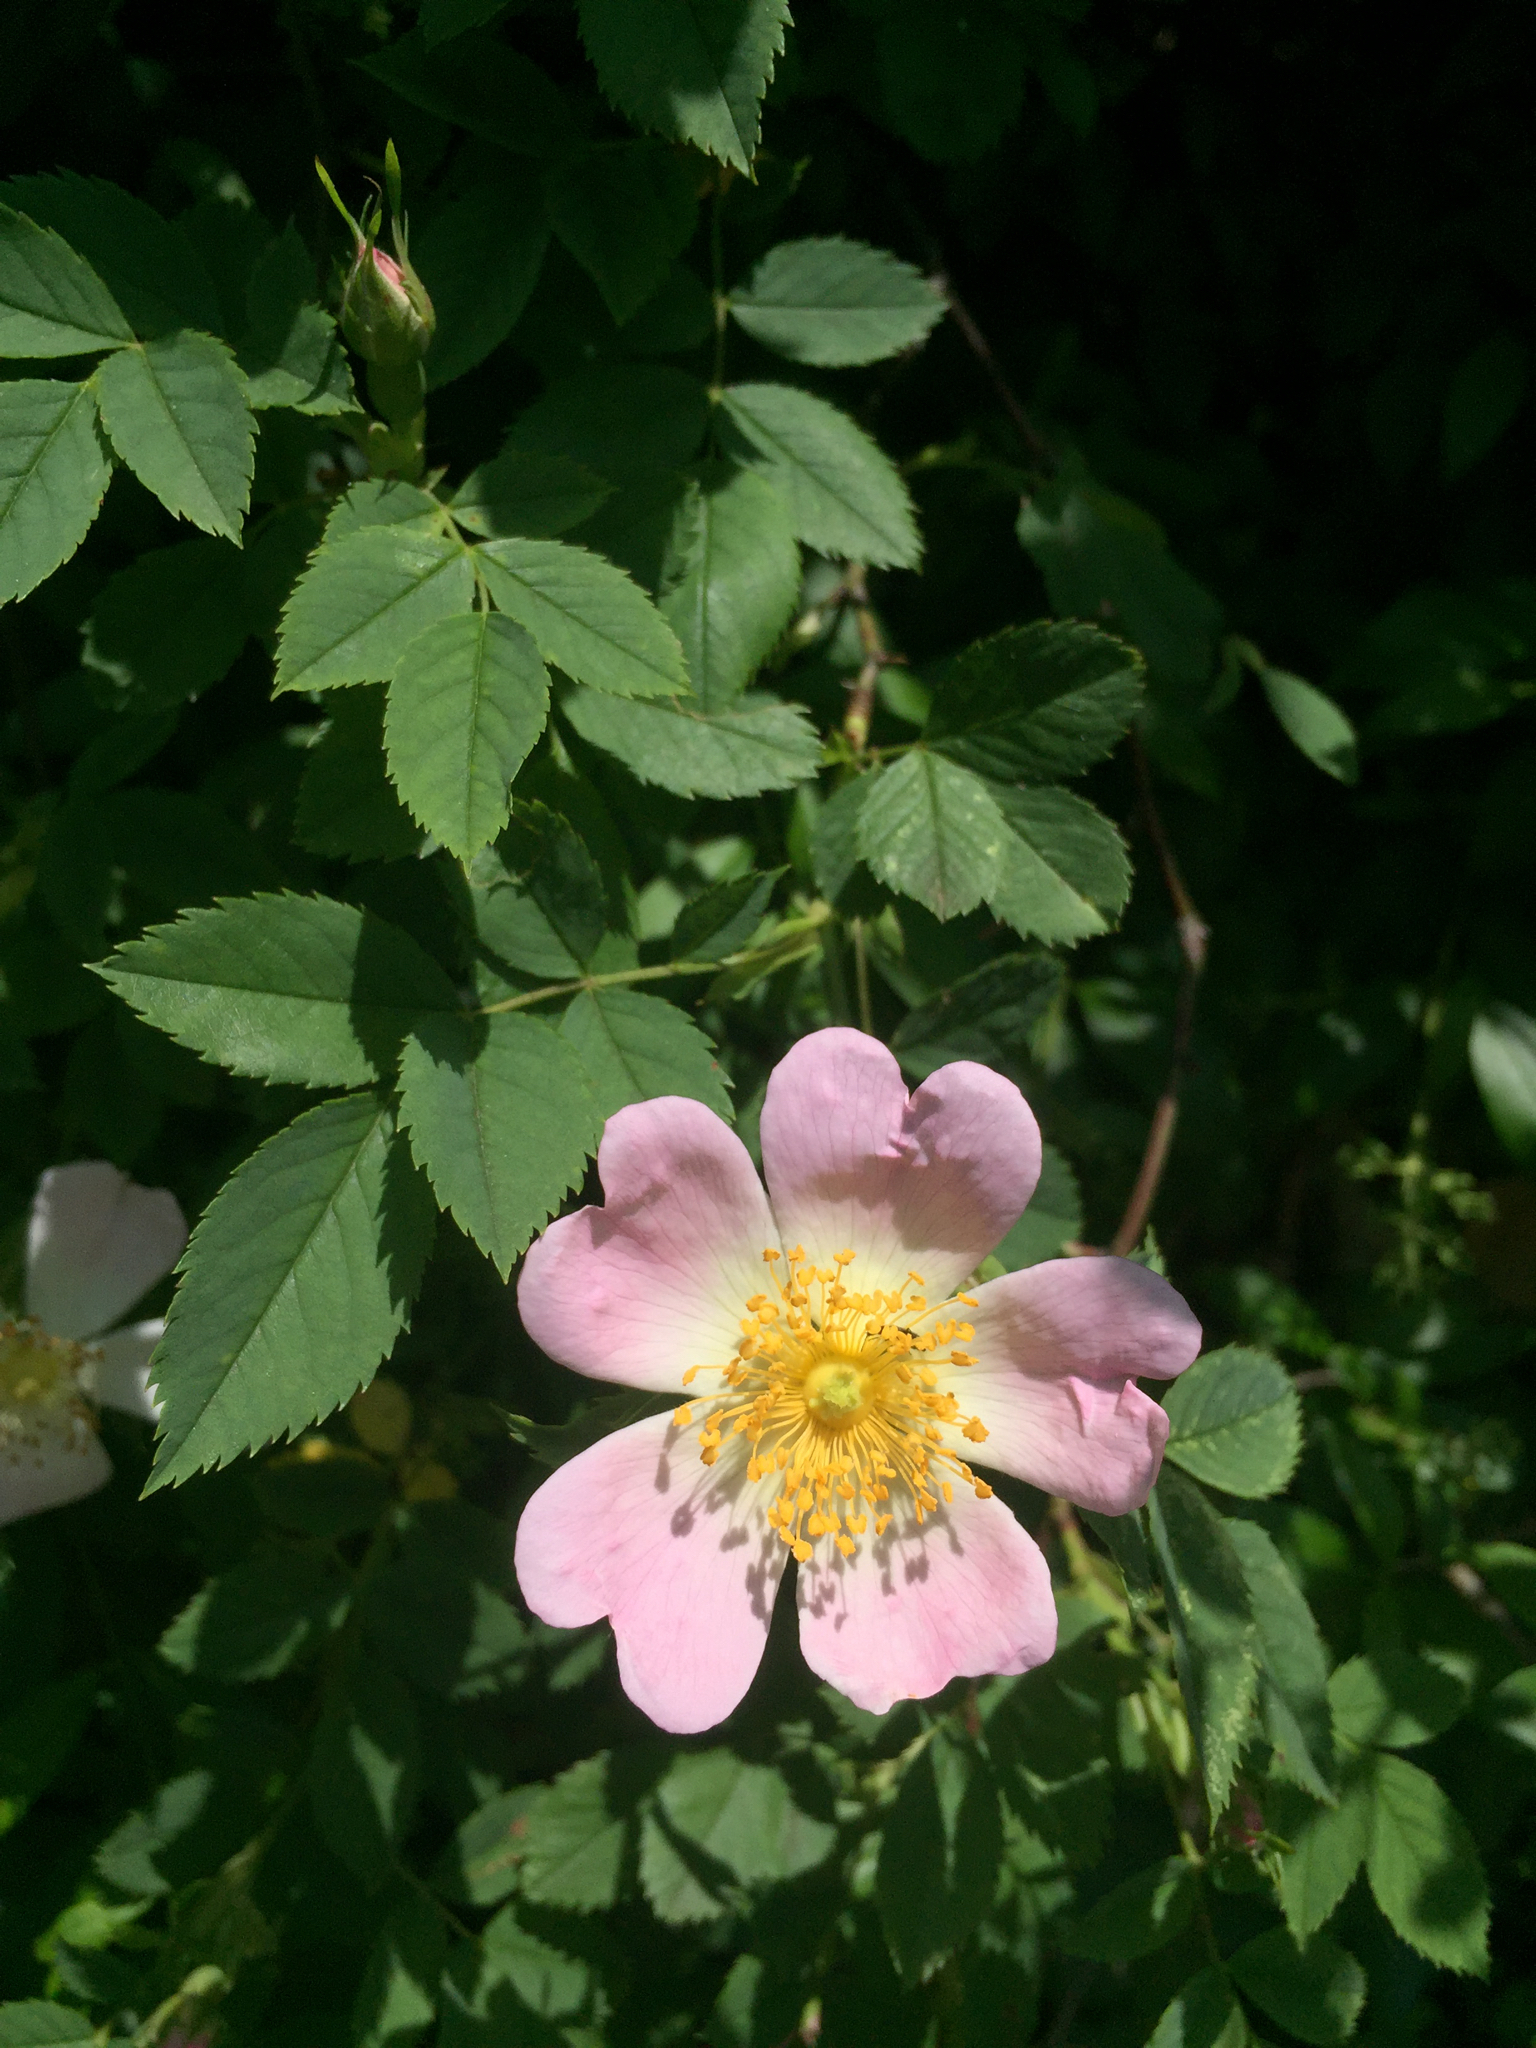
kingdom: Plantae
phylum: Tracheophyta
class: Magnoliopsida
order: Rosales
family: Rosaceae
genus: Rosa
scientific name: Rosa canina
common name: Dog rose
